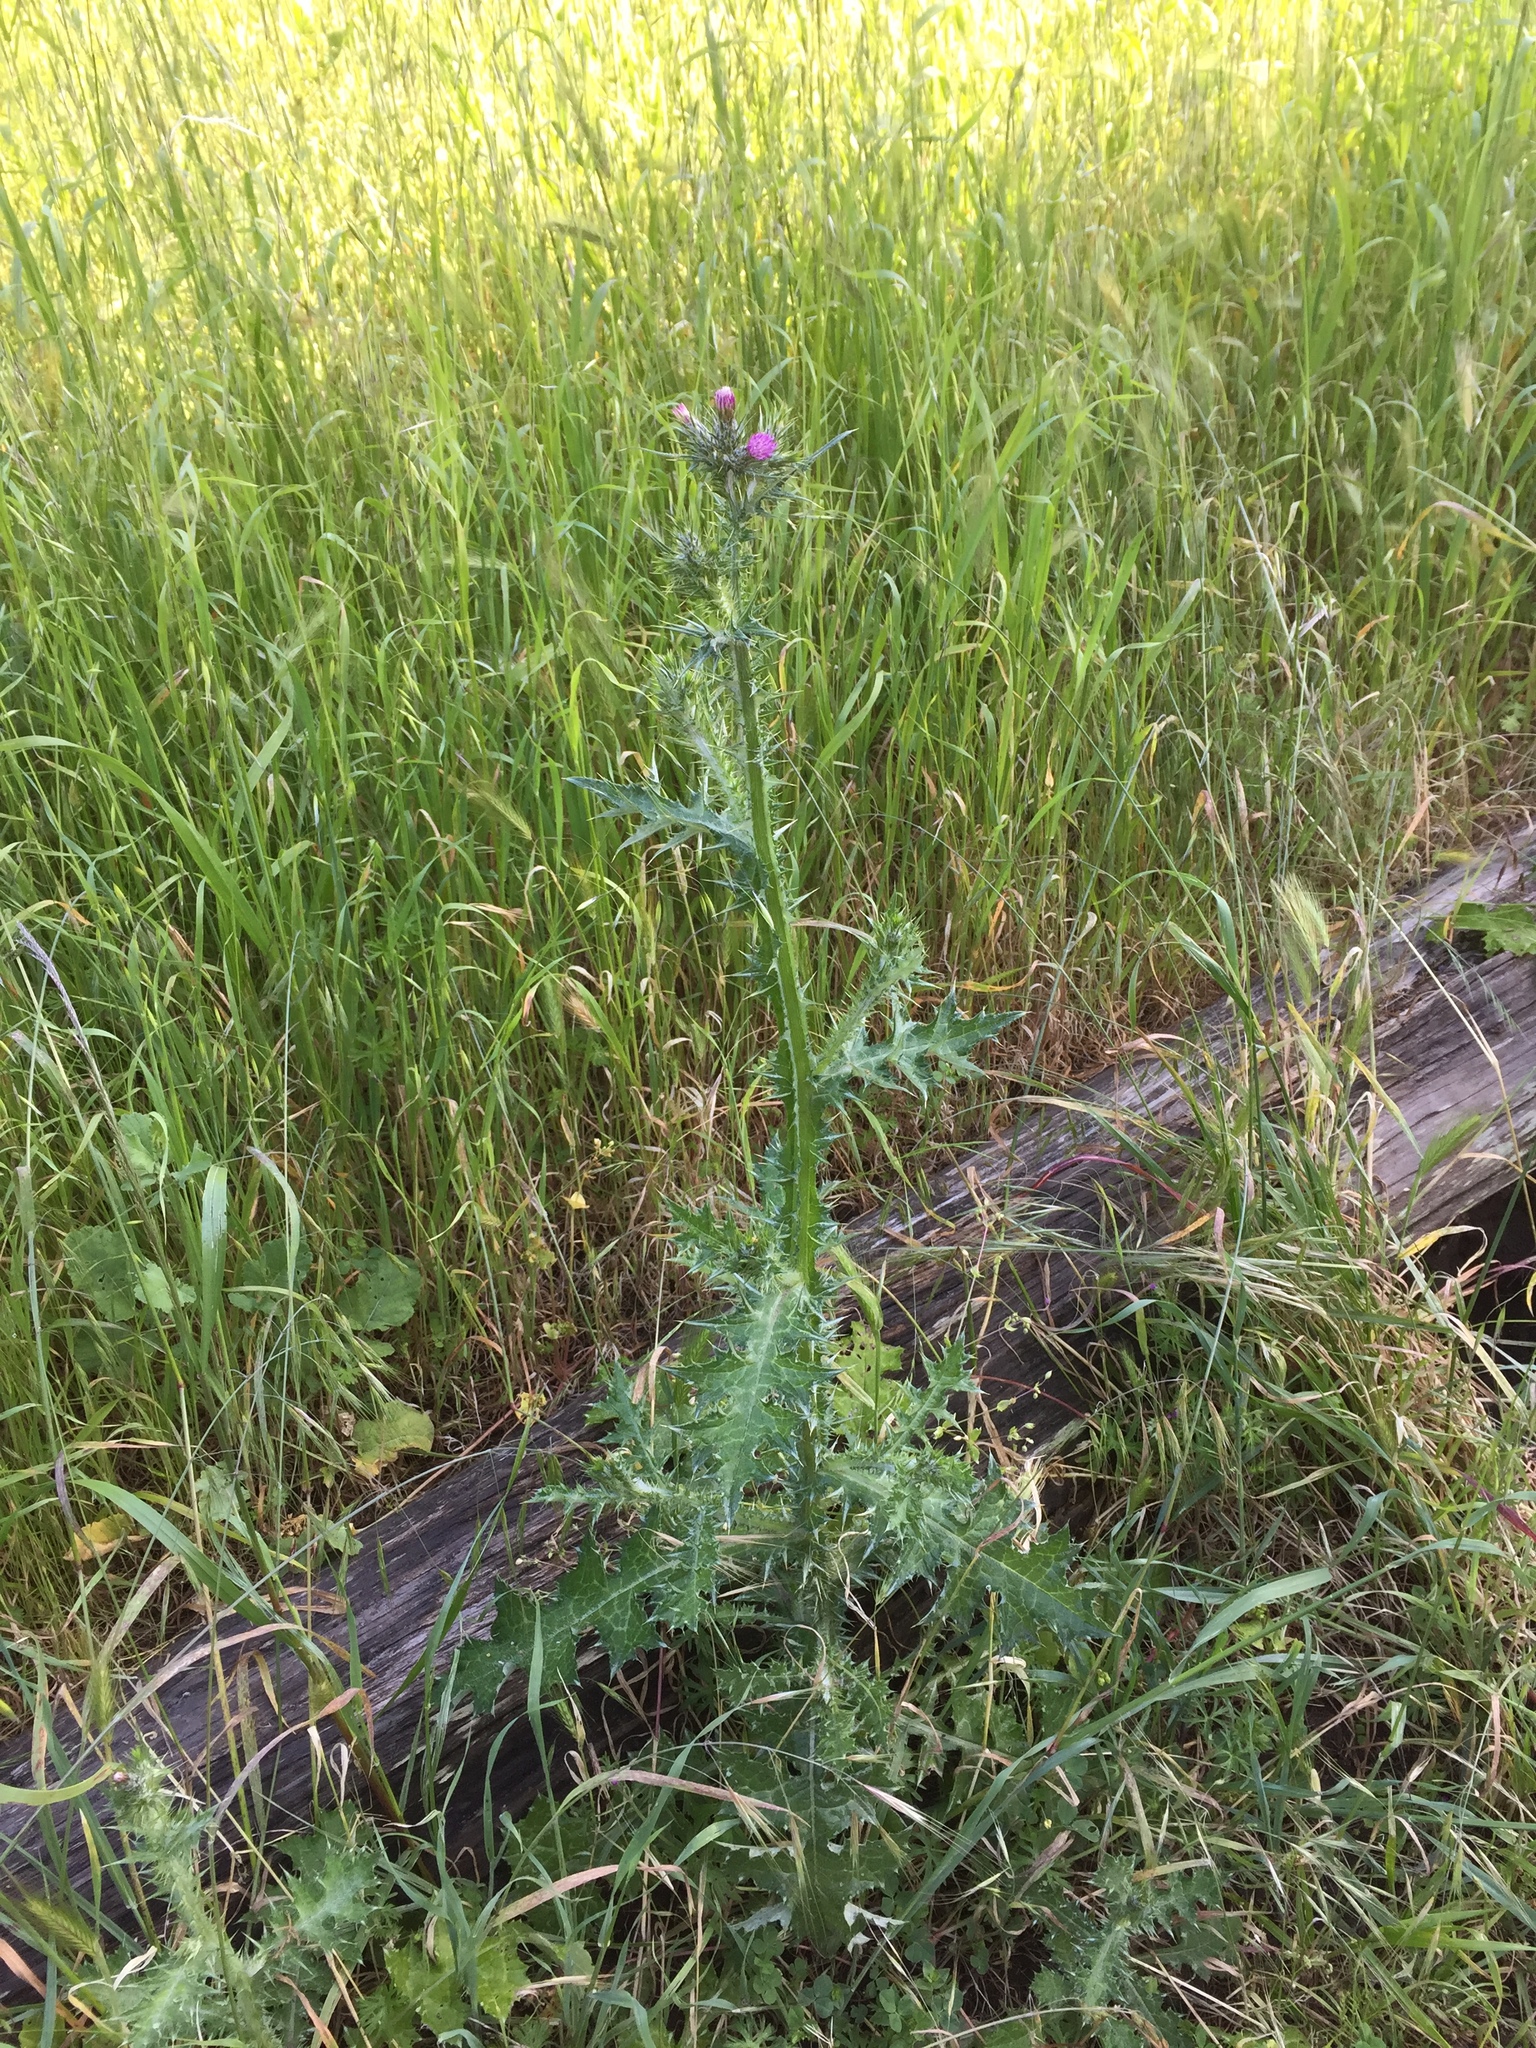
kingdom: Plantae
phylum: Tracheophyta
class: Magnoliopsida
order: Asterales
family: Asteraceae
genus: Carduus
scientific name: Carduus pycnocephalus
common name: Plymouth thistle
